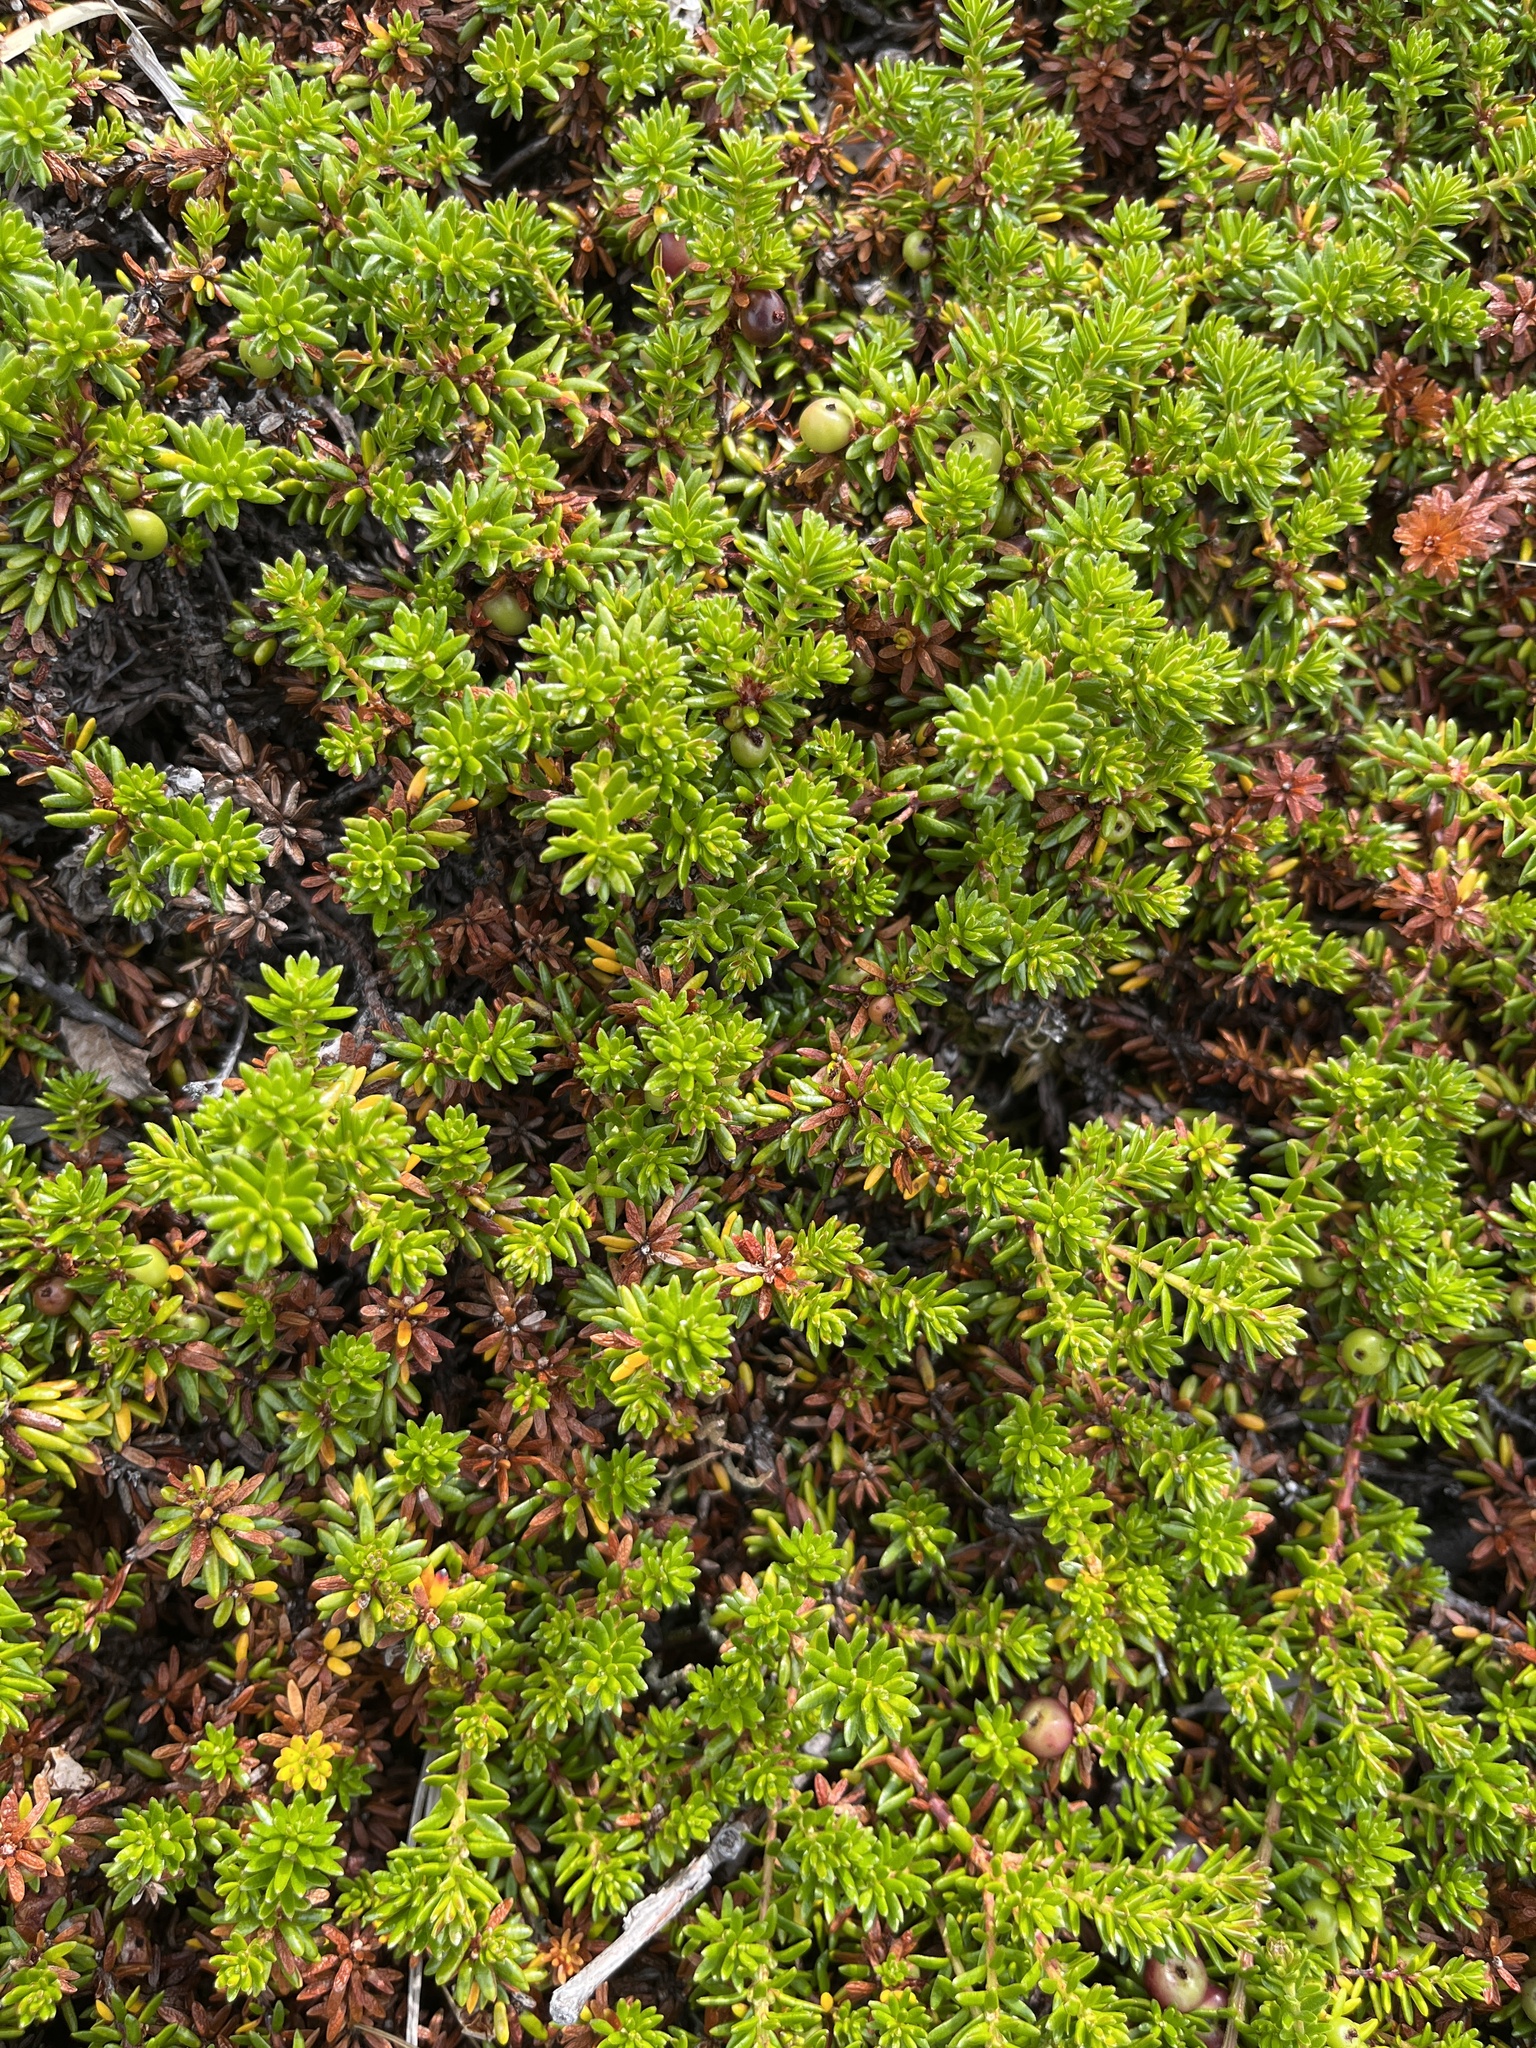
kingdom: Plantae
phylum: Tracheophyta
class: Magnoliopsida
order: Ericales
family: Ericaceae
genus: Empetrum
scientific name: Empetrum hermaphroditum
